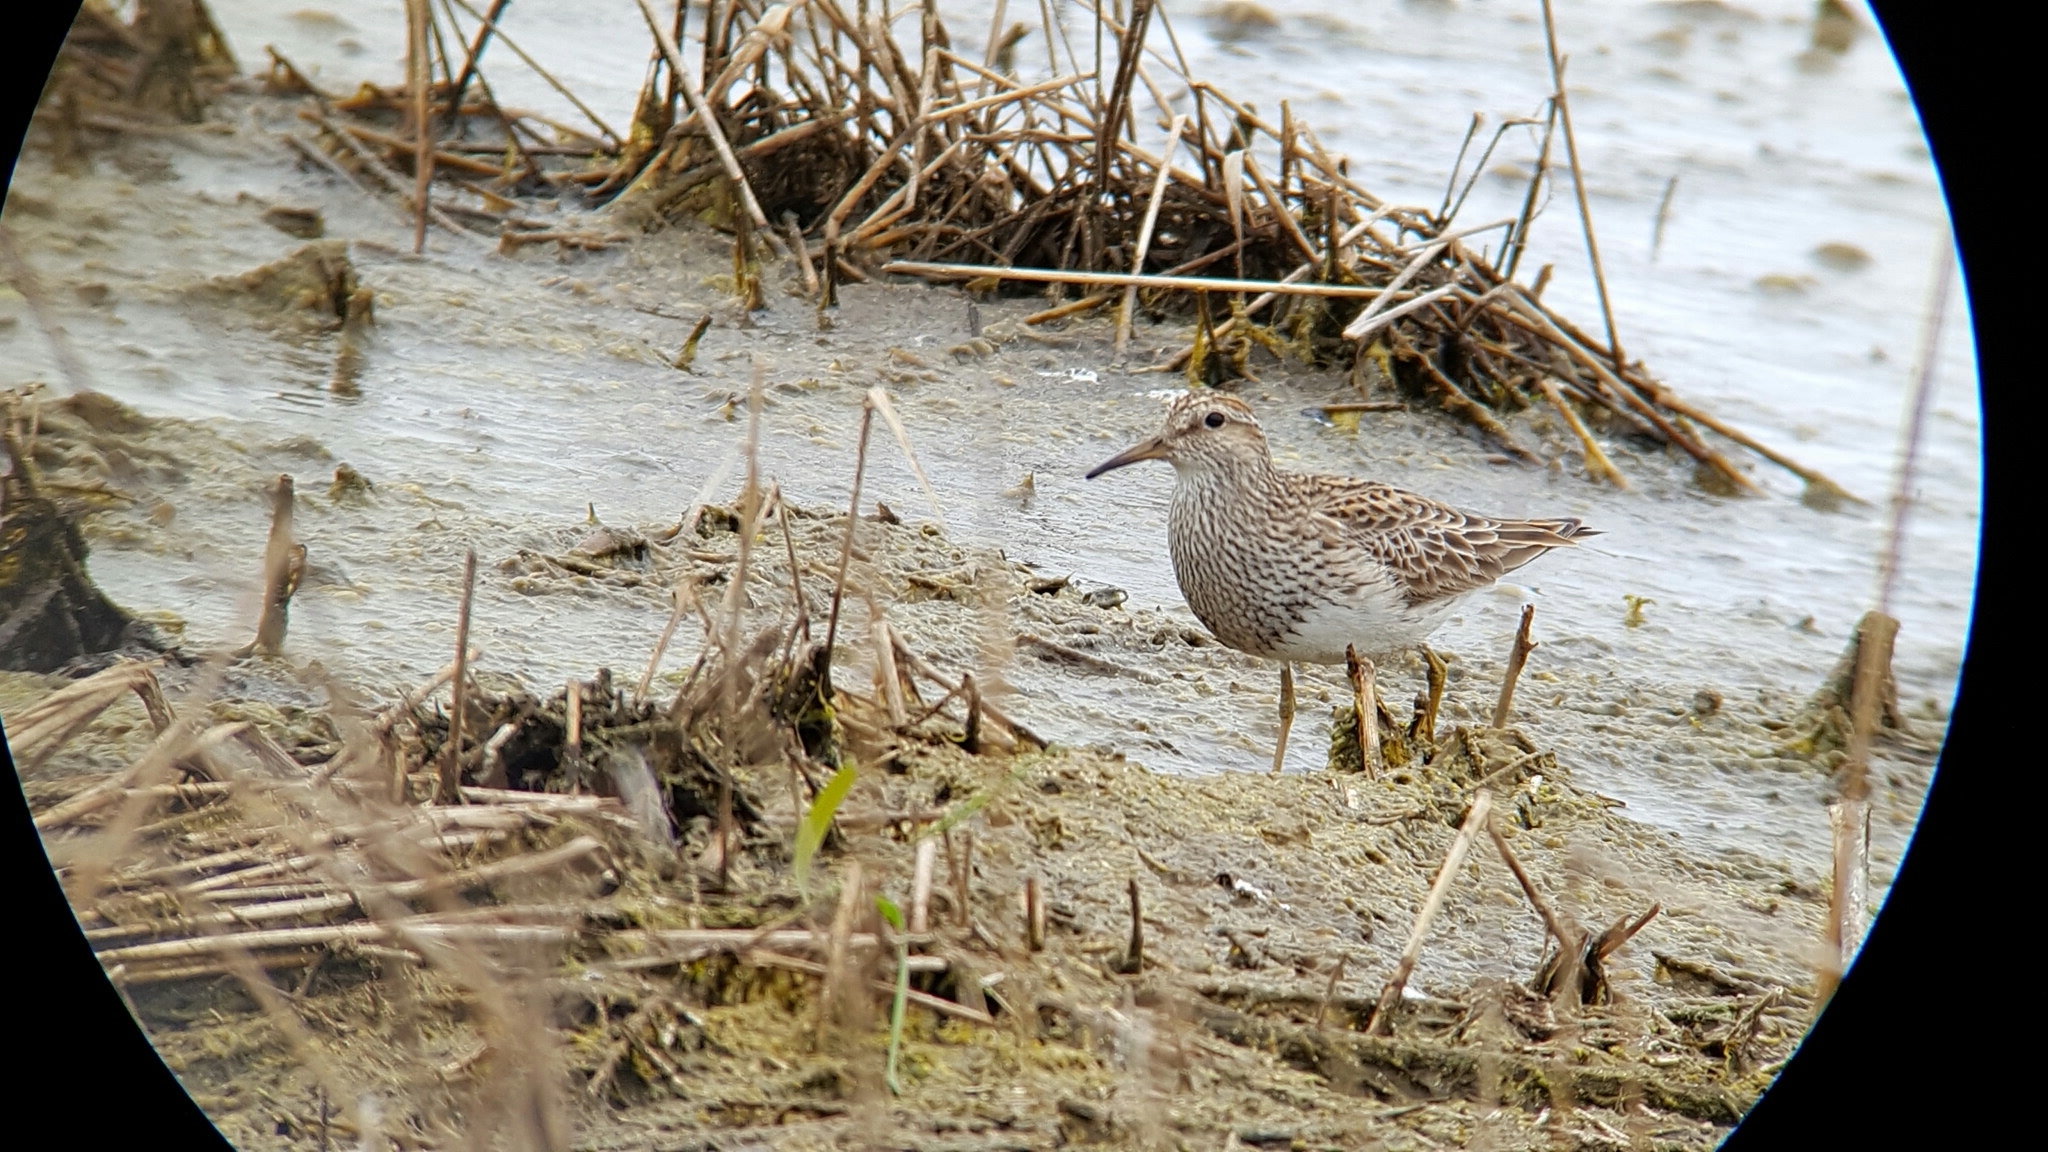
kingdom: Animalia
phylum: Chordata
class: Aves
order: Charadriiformes
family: Scolopacidae
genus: Calidris
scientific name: Calidris melanotos
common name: Pectoral sandpiper
